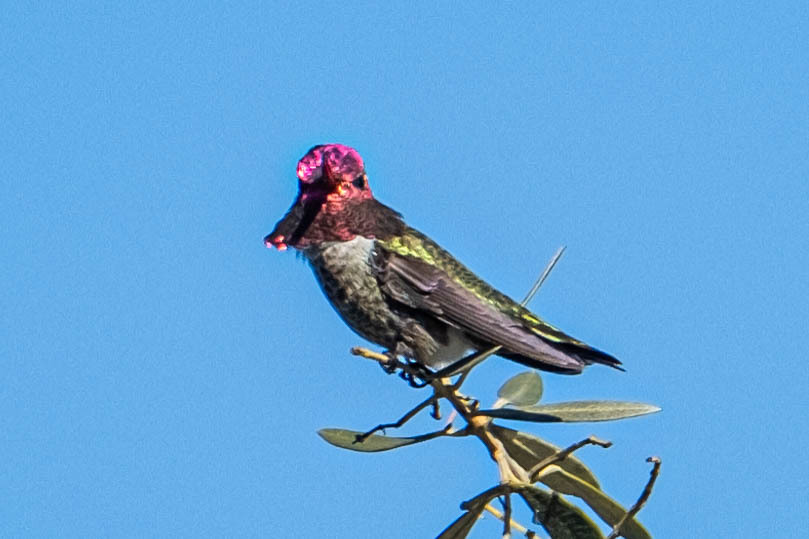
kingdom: Animalia
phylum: Chordata
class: Aves
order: Apodiformes
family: Trochilidae
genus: Calypte
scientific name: Calypte anna
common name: Anna's hummingbird
